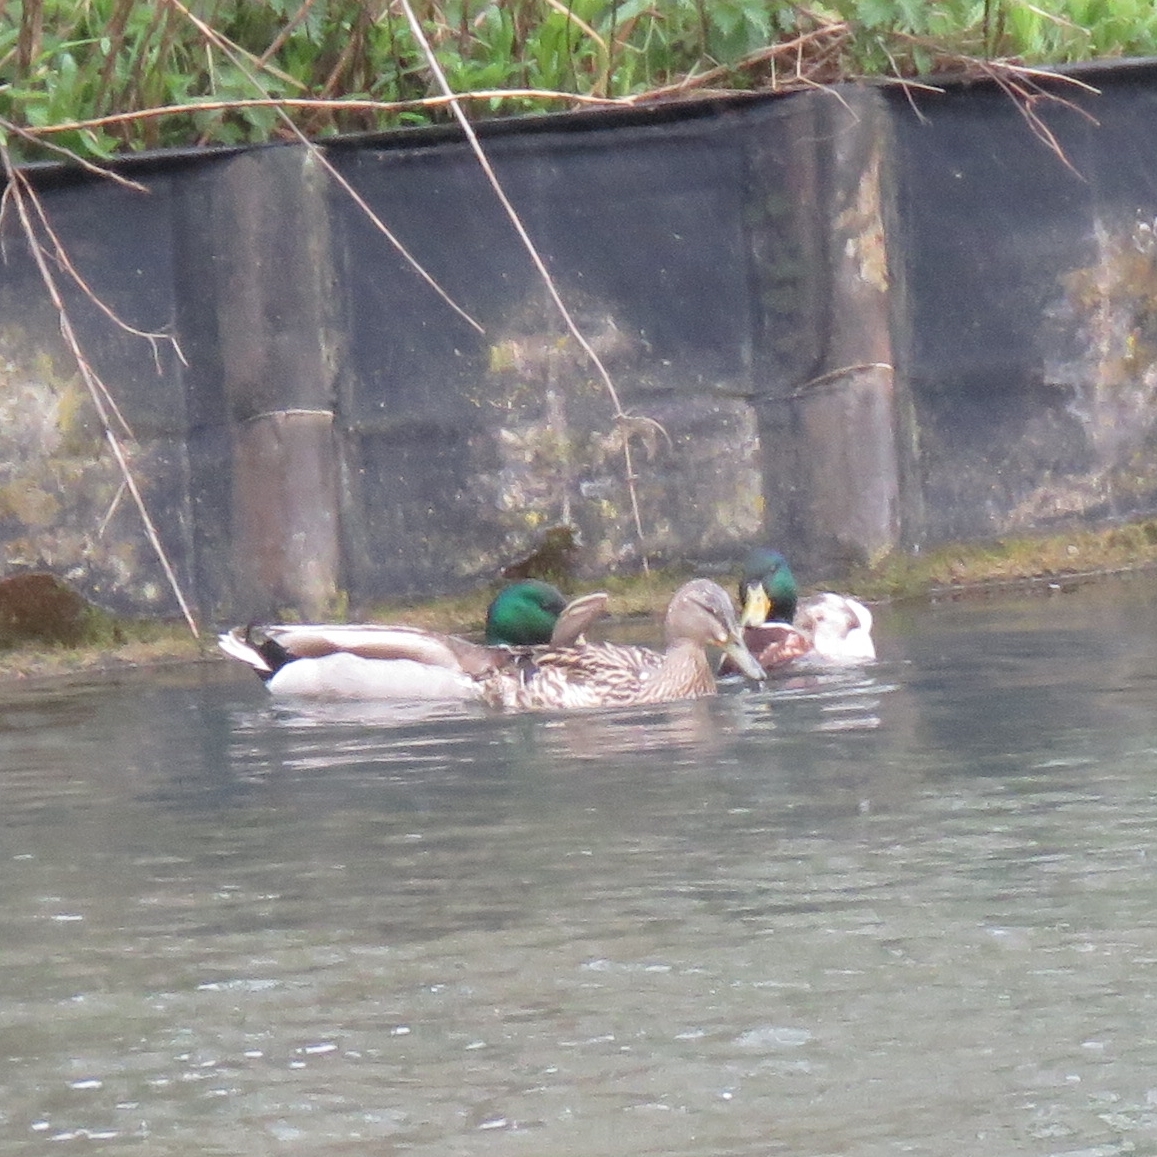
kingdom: Animalia
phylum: Chordata
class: Aves
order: Anseriformes
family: Anatidae
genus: Anas
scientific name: Anas platyrhynchos
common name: Mallard
